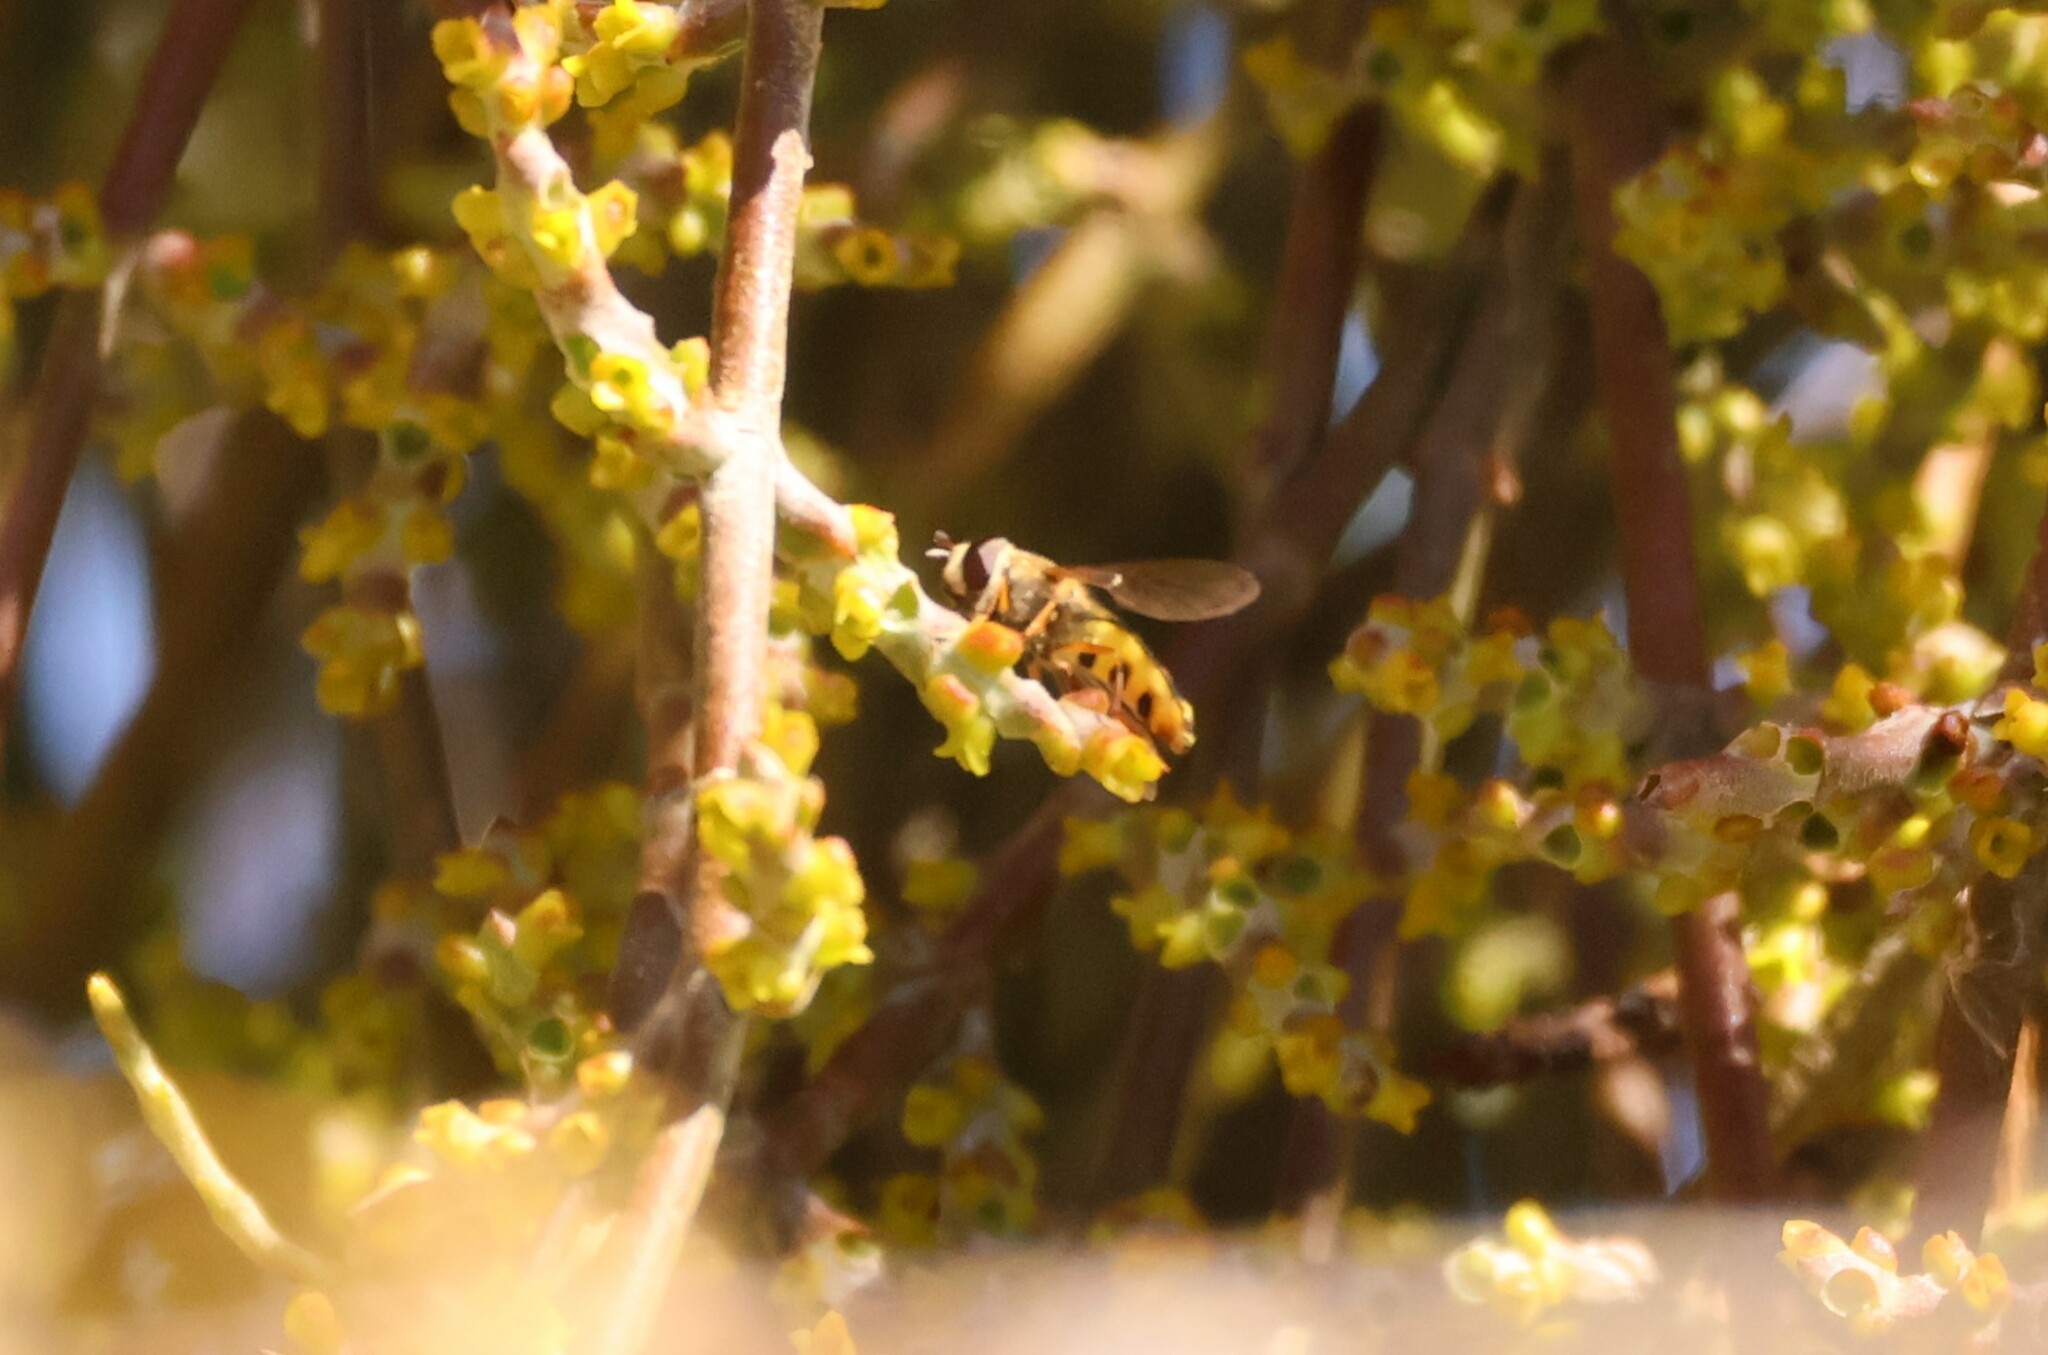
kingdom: Animalia
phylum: Arthropoda
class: Insecta
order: Diptera
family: Syrphidae
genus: Eupeodes
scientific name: Eupeodes fumipennis
